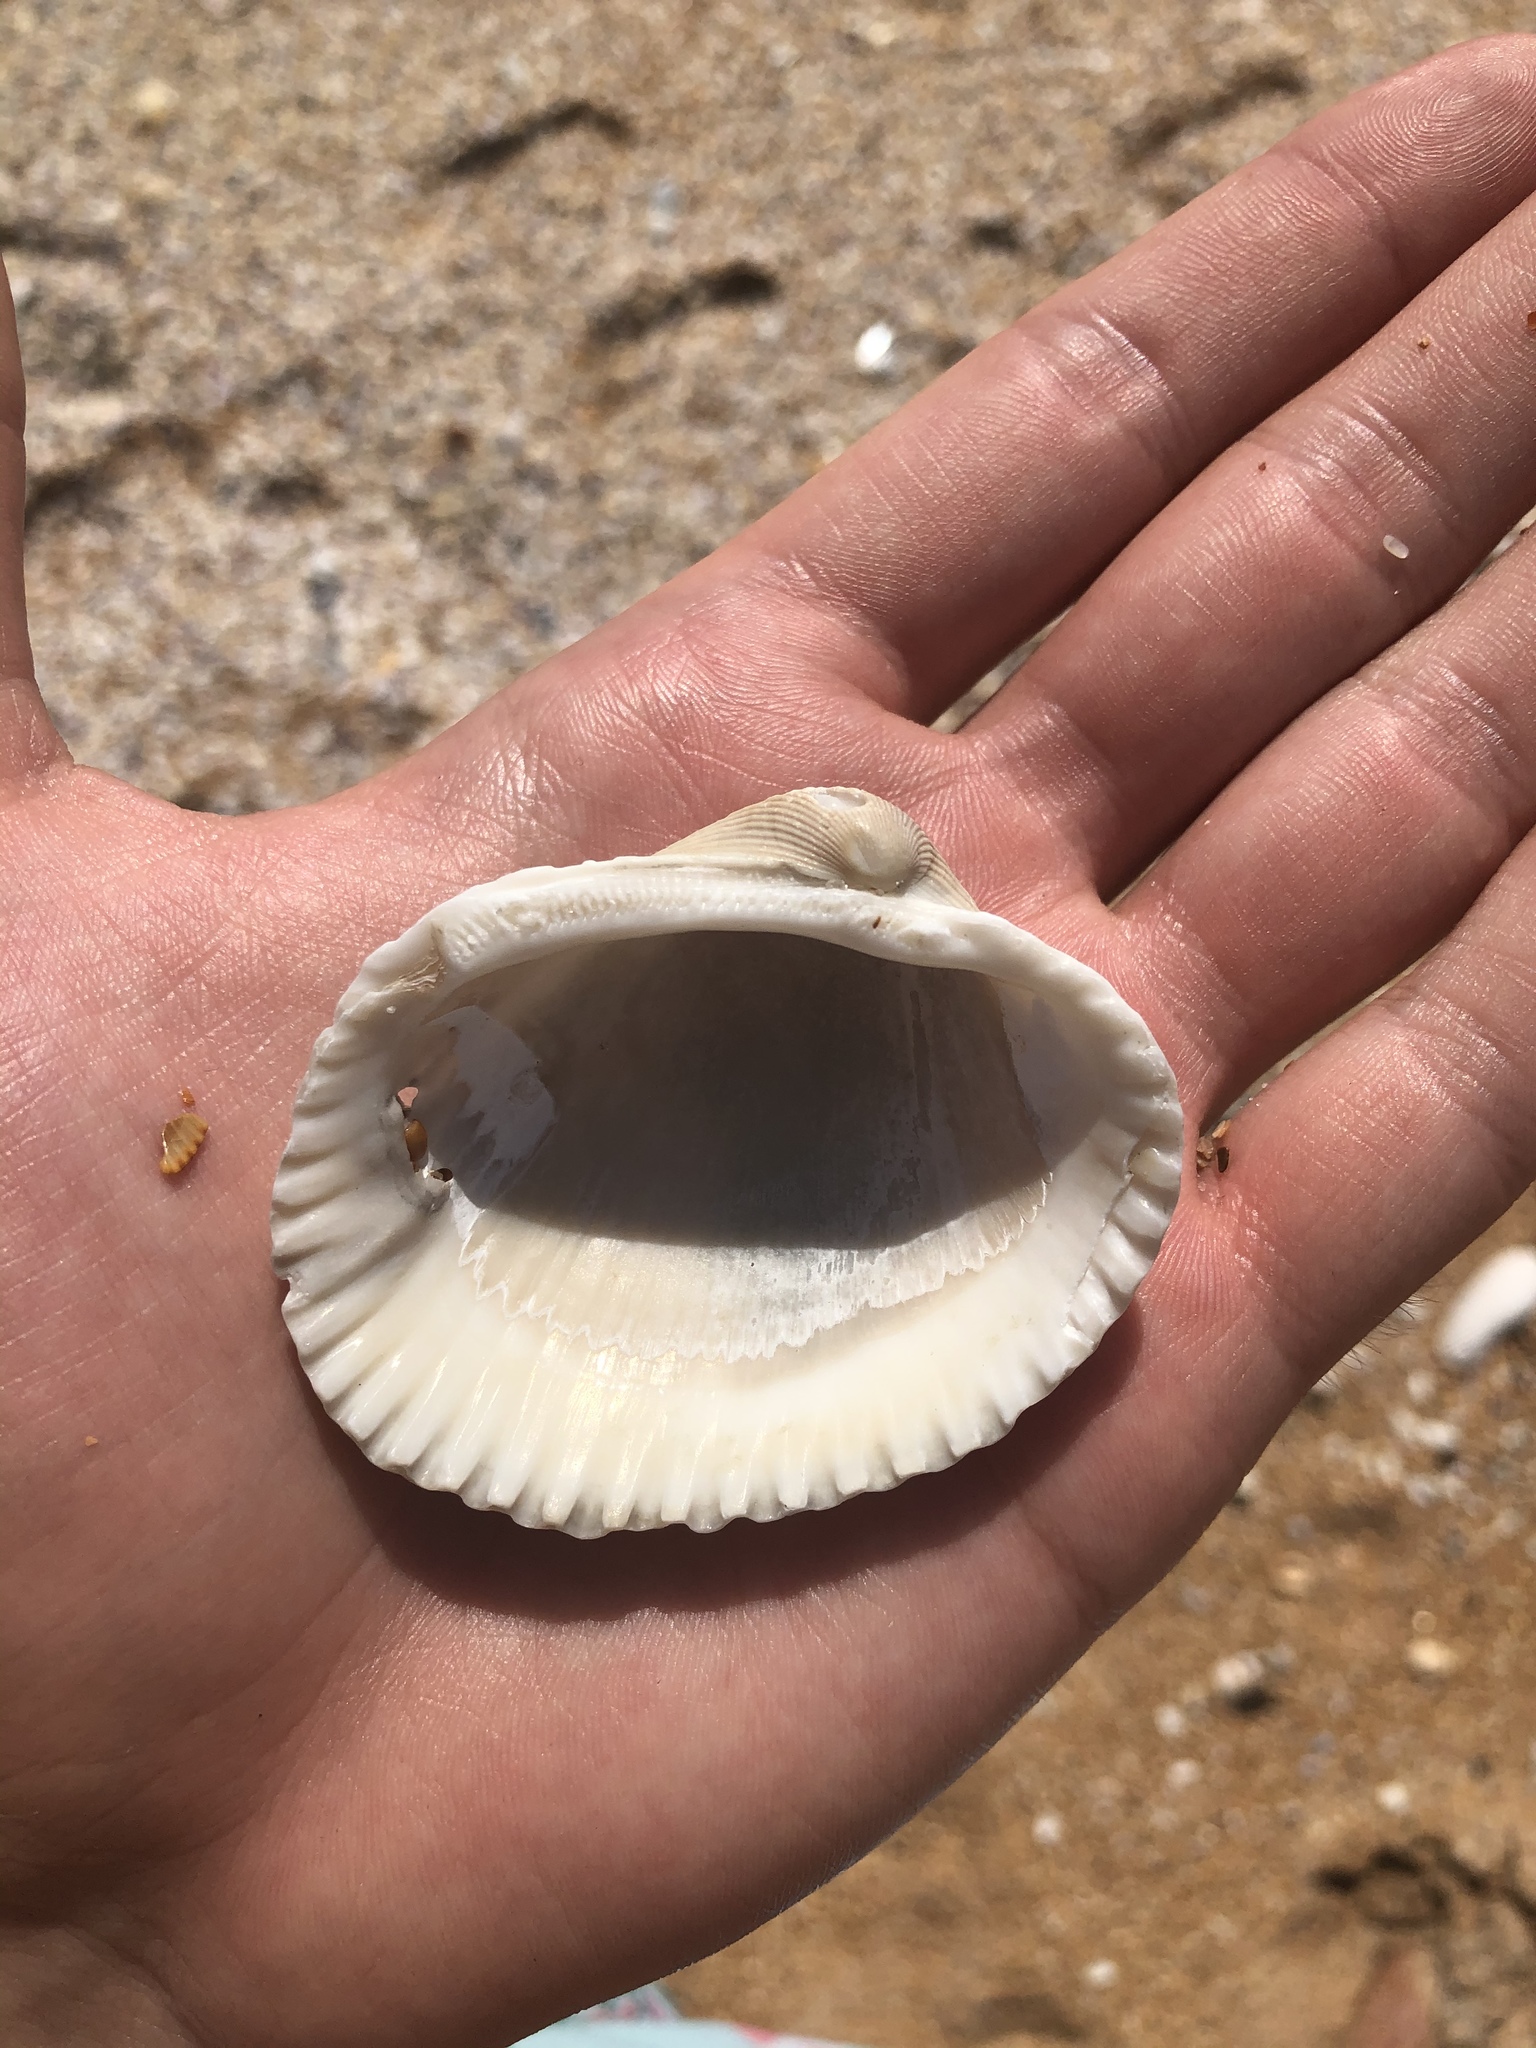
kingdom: Animalia
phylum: Mollusca
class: Bivalvia
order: Arcida
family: Arcidae
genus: Lunarca
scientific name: Lunarca ovalis
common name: Blood ark
